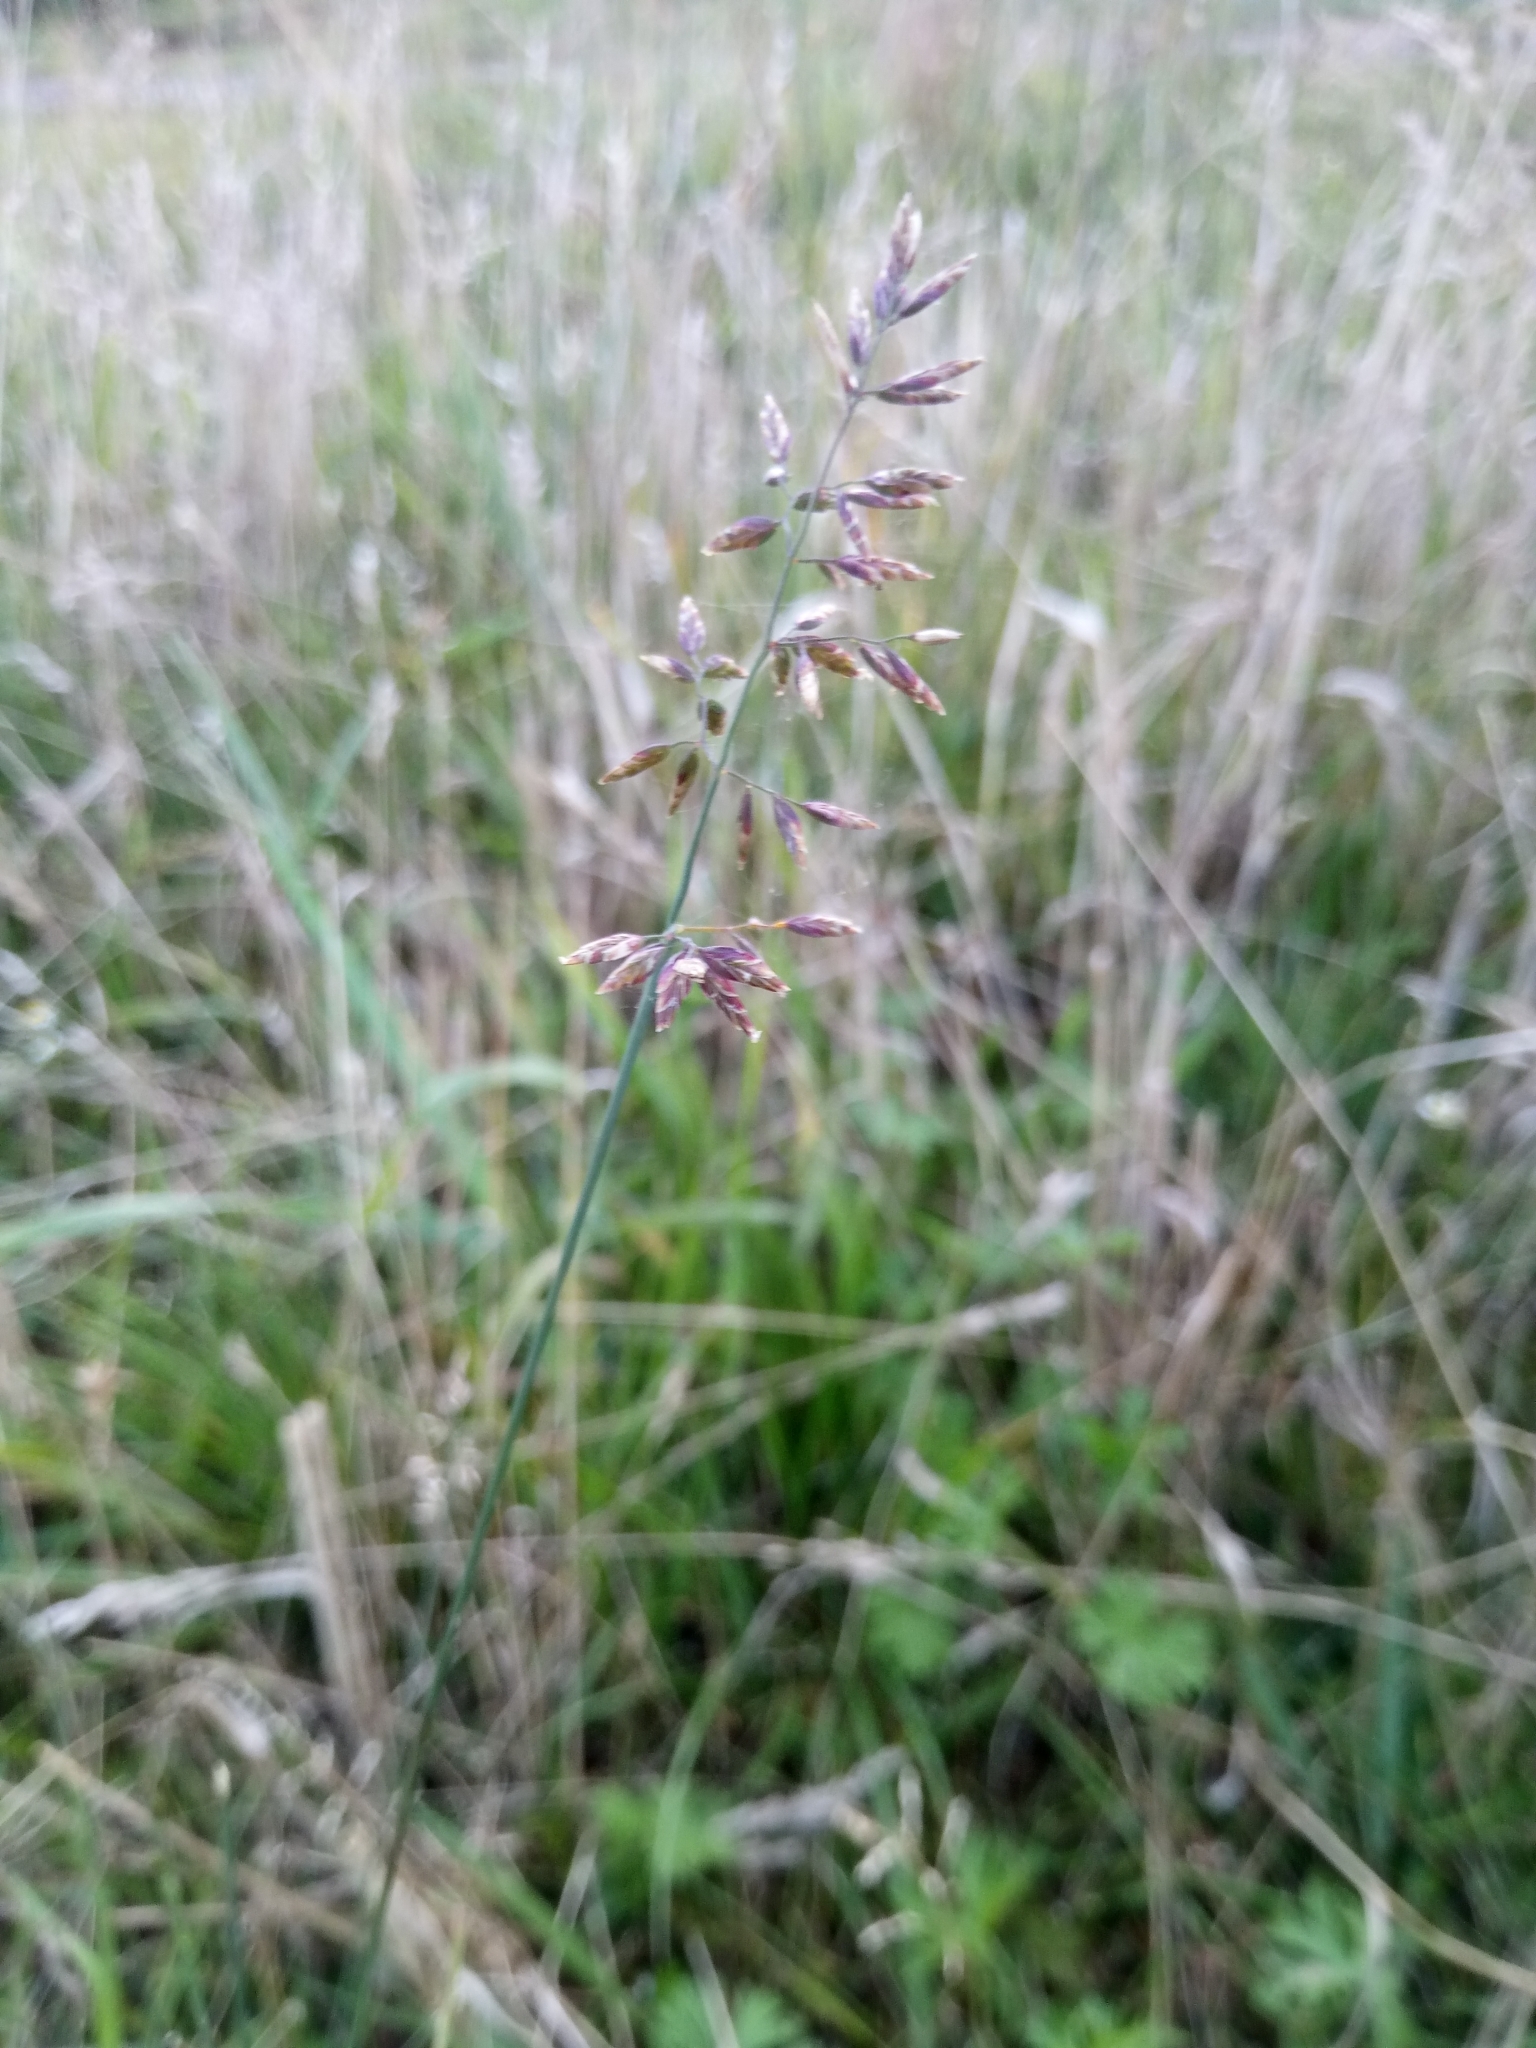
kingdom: Plantae
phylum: Tracheophyta
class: Liliopsida
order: Poales
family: Poaceae
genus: Poa
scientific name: Poa compressa
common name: Canada bluegrass
